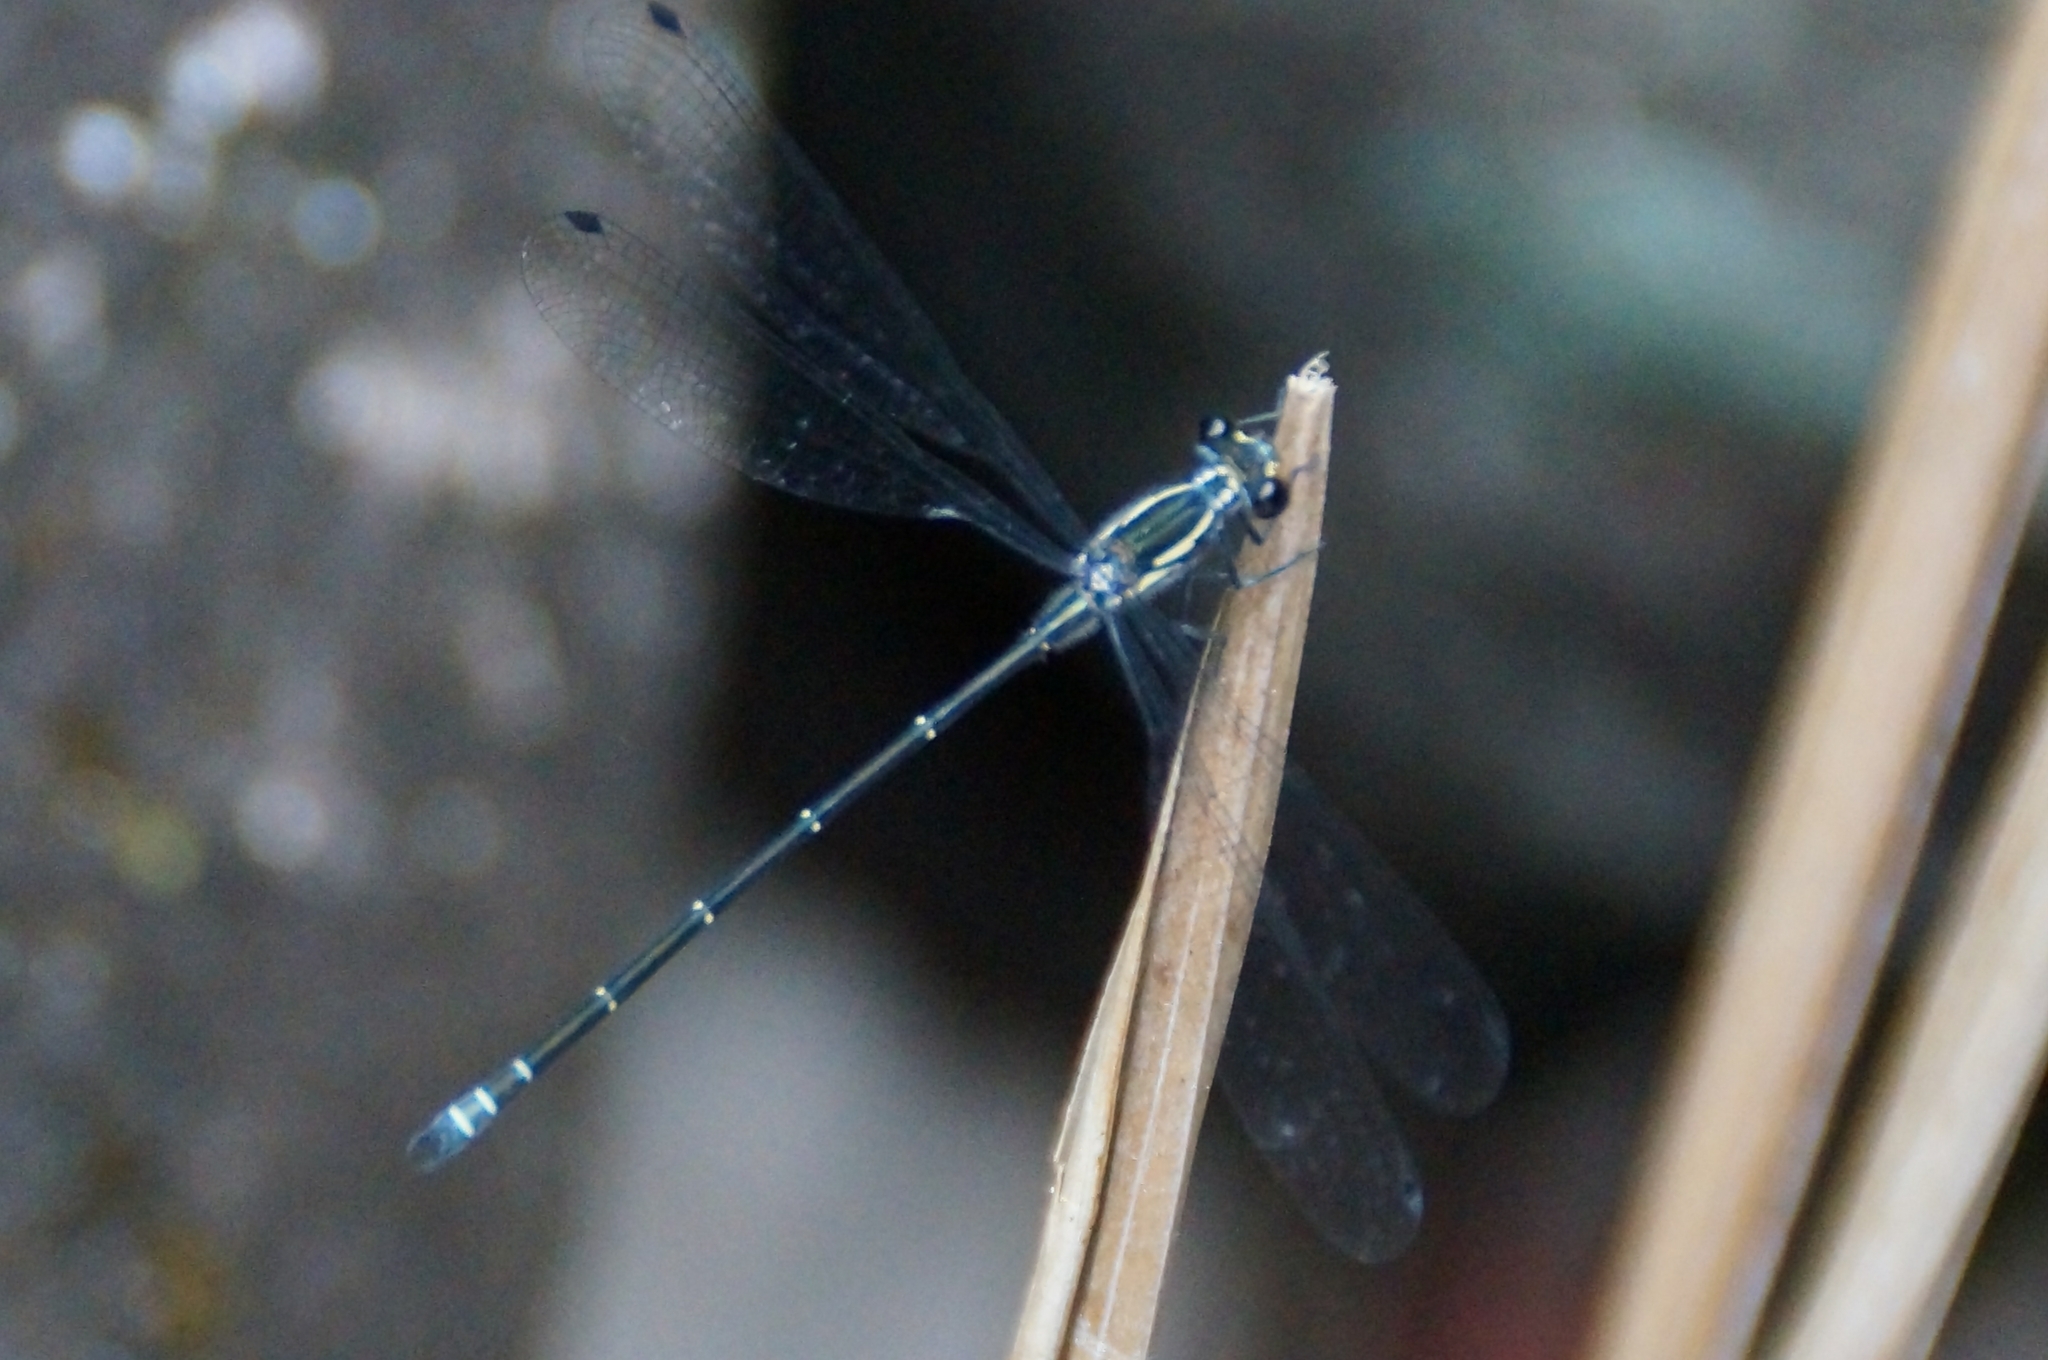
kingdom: Animalia
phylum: Arthropoda
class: Insecta
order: Odonata
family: Argiolestidae
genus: Austroargiolestes
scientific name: Austroargiolestes icteromelas
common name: Common flatwing
